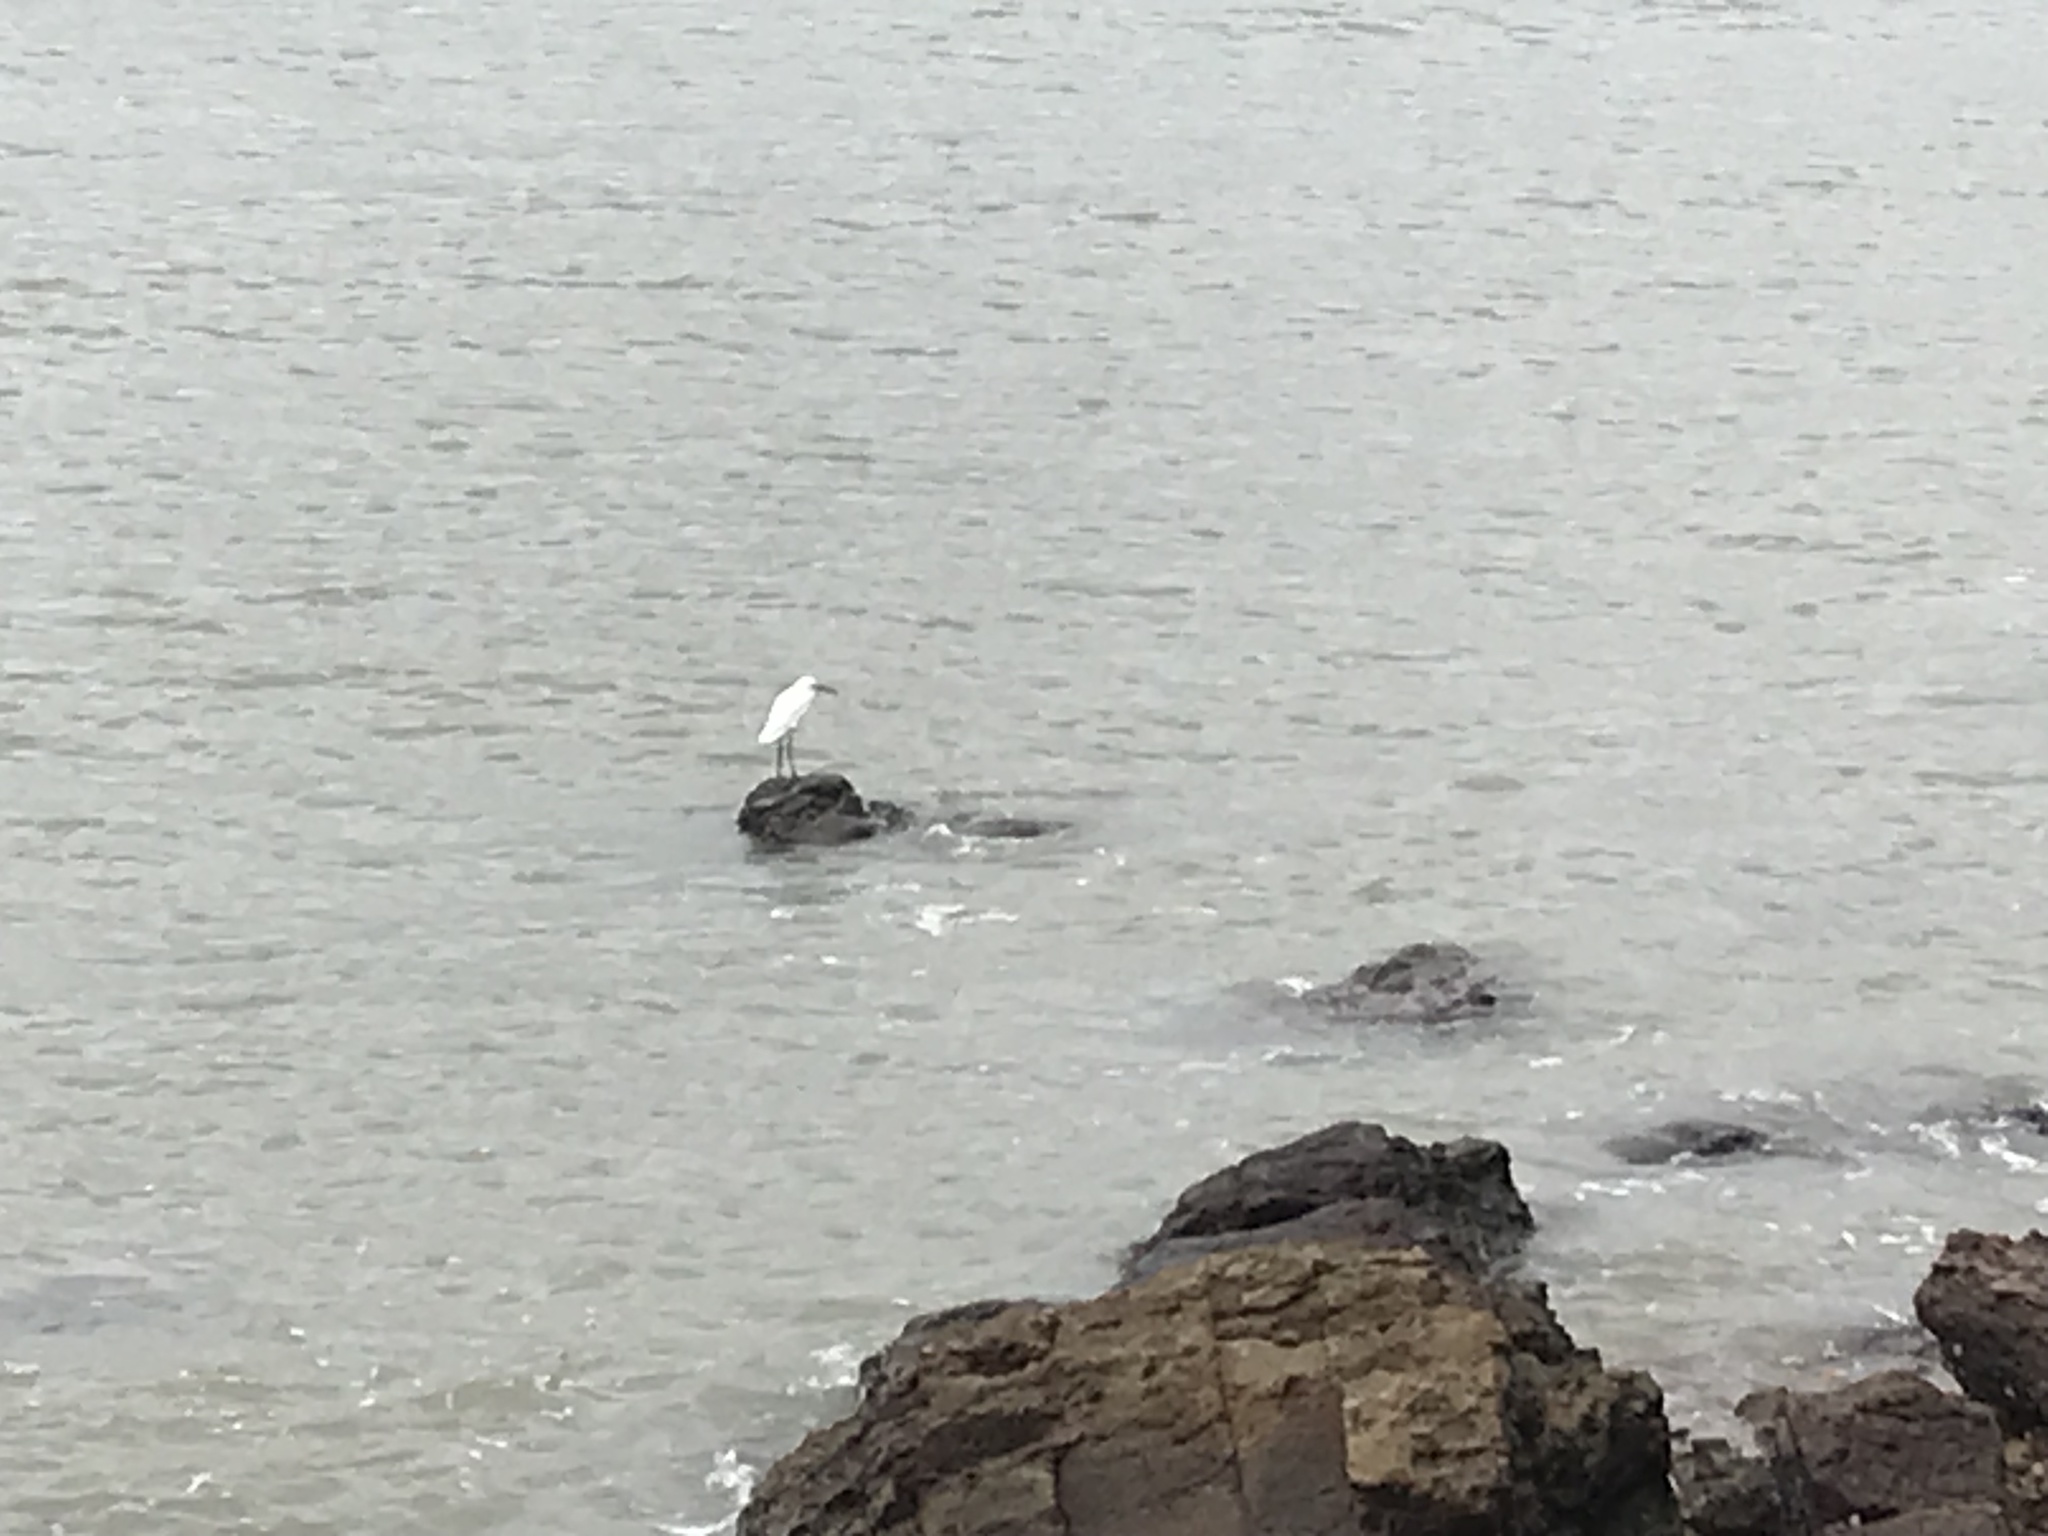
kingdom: Animalia
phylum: Chordata
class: Aves
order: Pelecaniformes
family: Ardeidae
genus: Egretta
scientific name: Egretta garzetta
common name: Little egret
